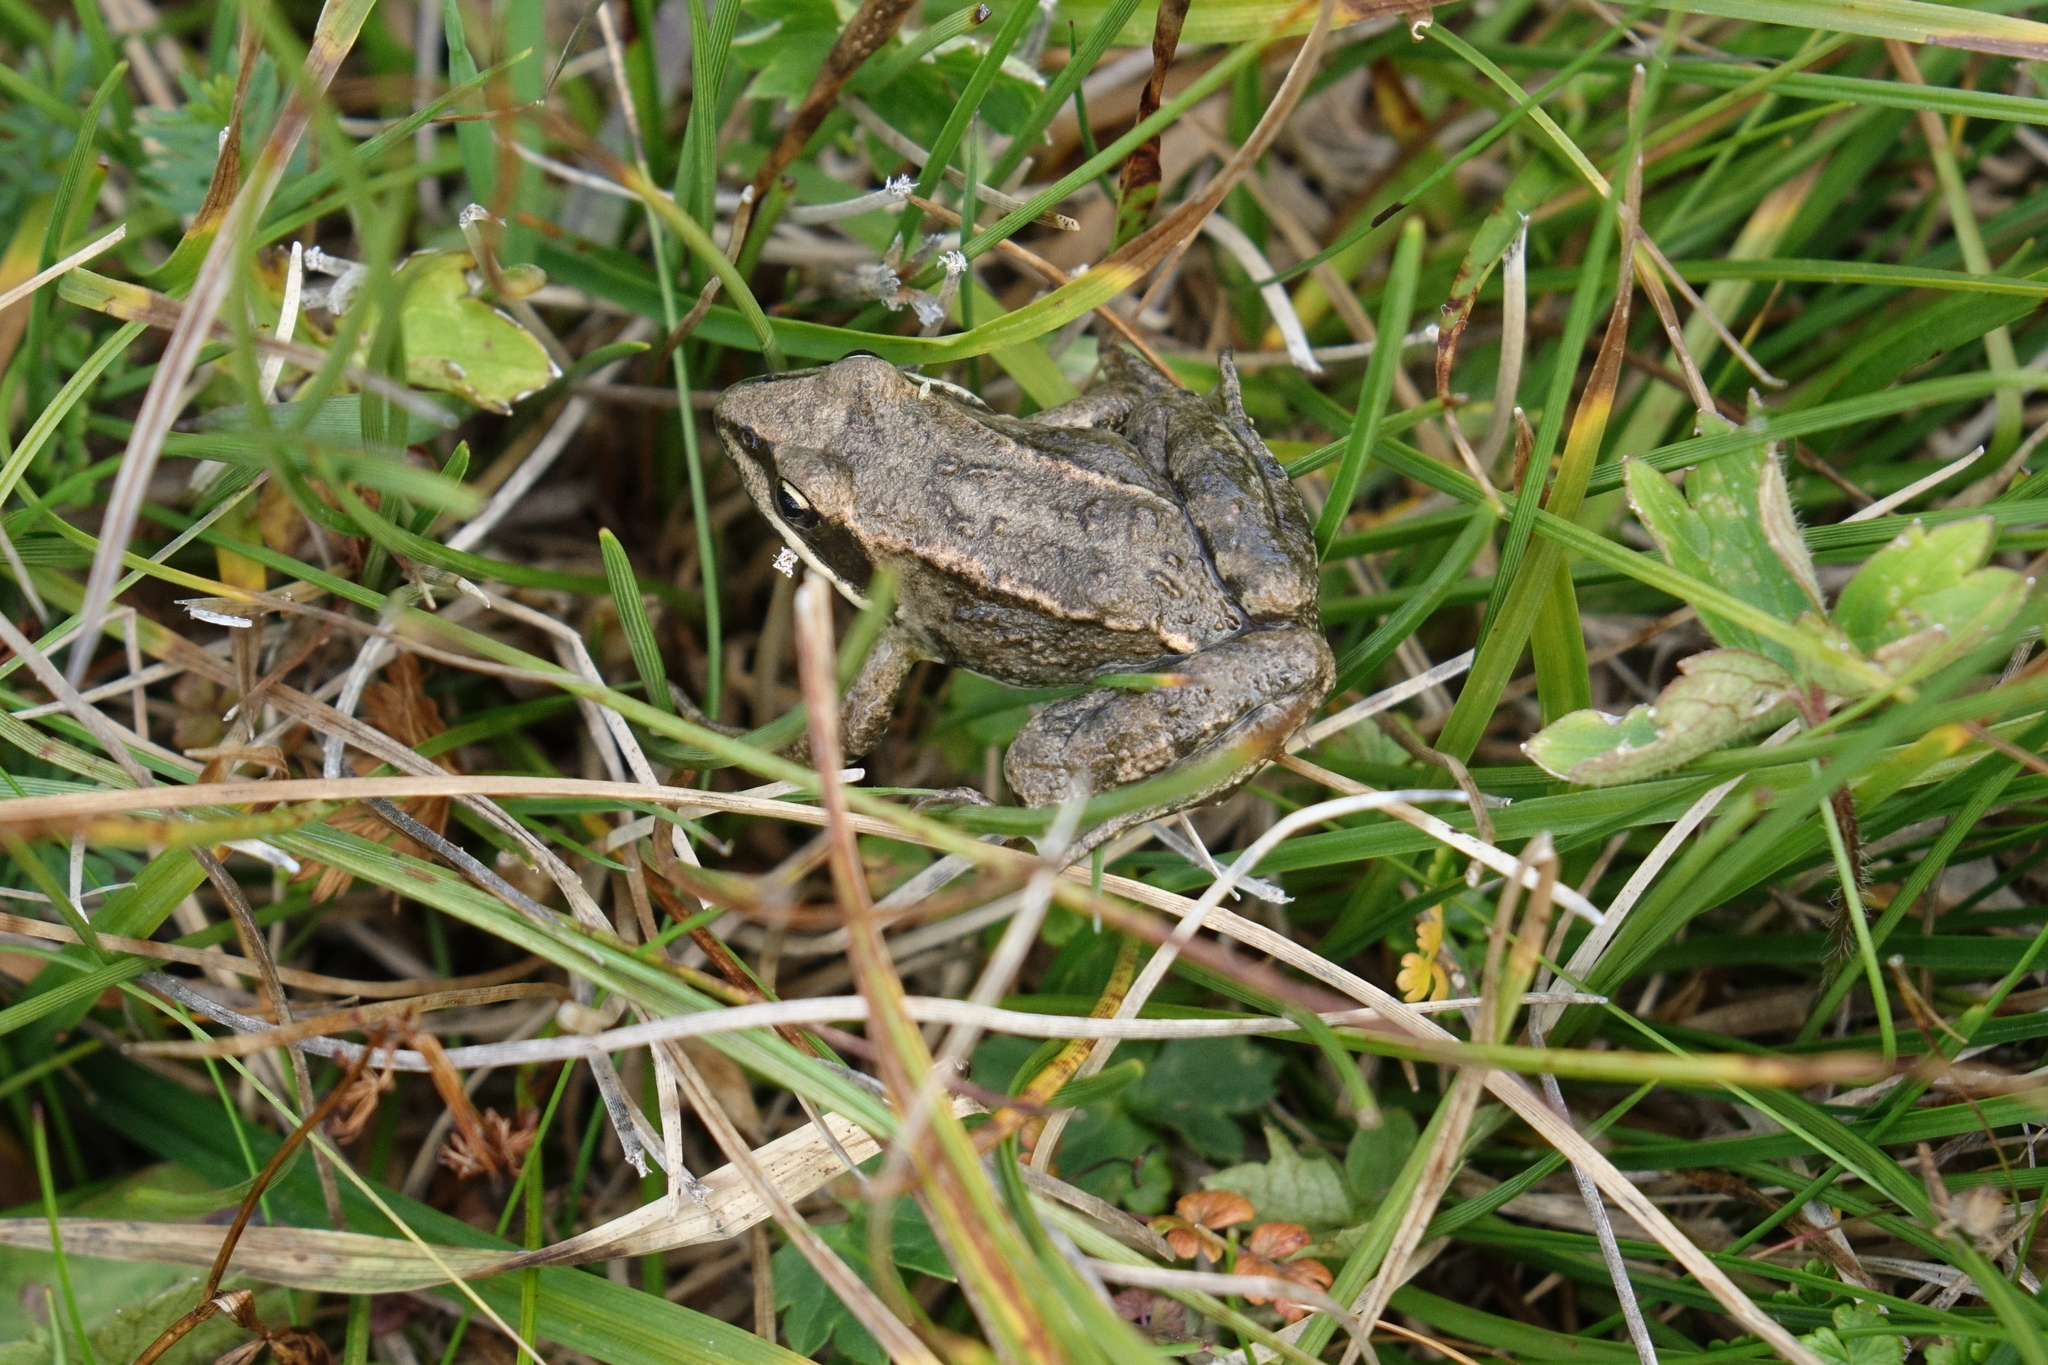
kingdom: Animalia
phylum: Chordata
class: Amphibia
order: Anura
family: Ranidae
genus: Rana
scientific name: Rana macrocnemis
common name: Banded frog
